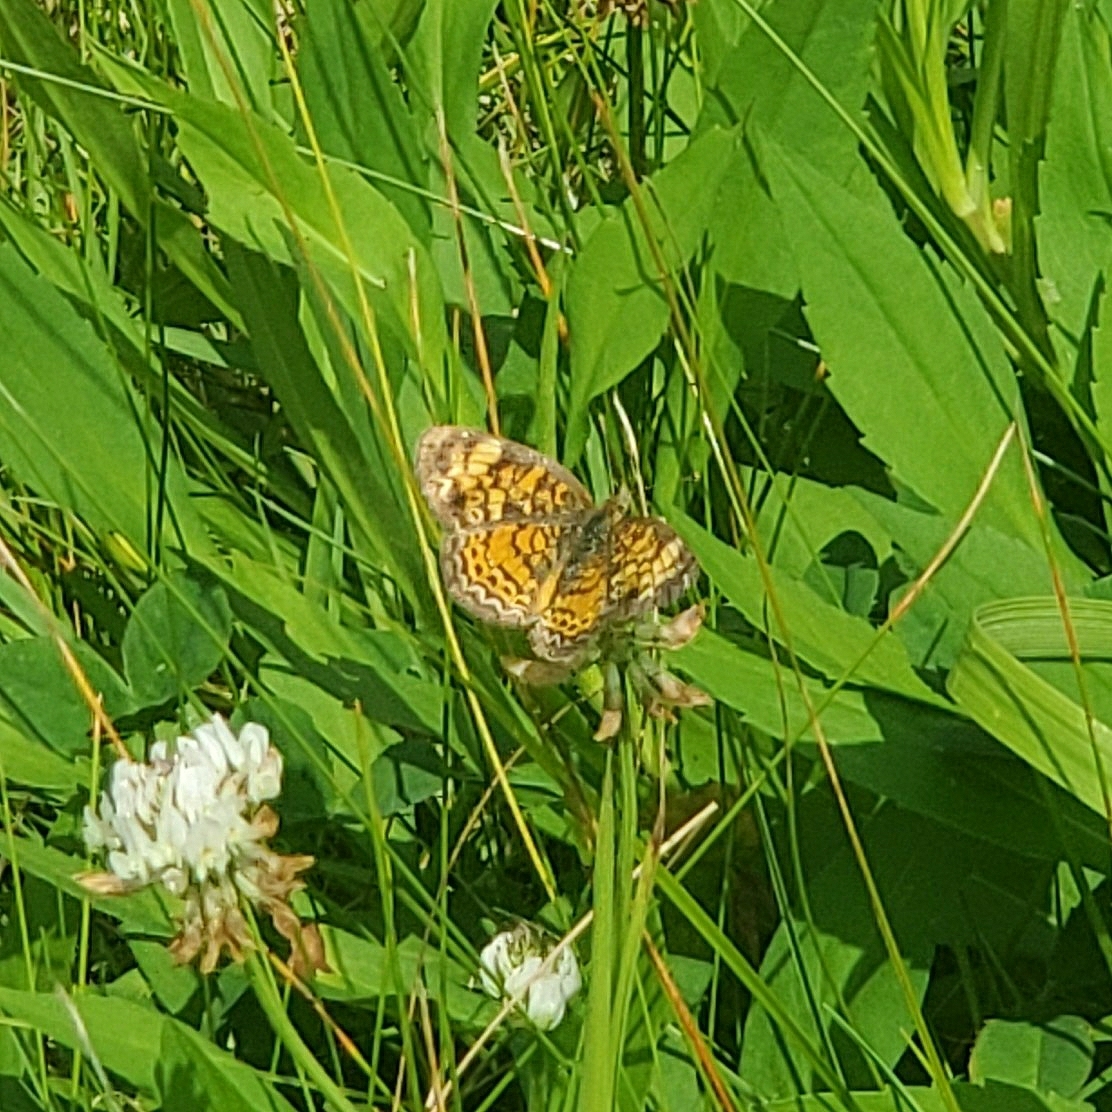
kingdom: Animalia
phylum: Arthropoda
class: Insecta
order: Lepidoptera
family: Nymphalidae
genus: Phyciodes
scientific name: Phyciodes tharos
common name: Pearl crescent
